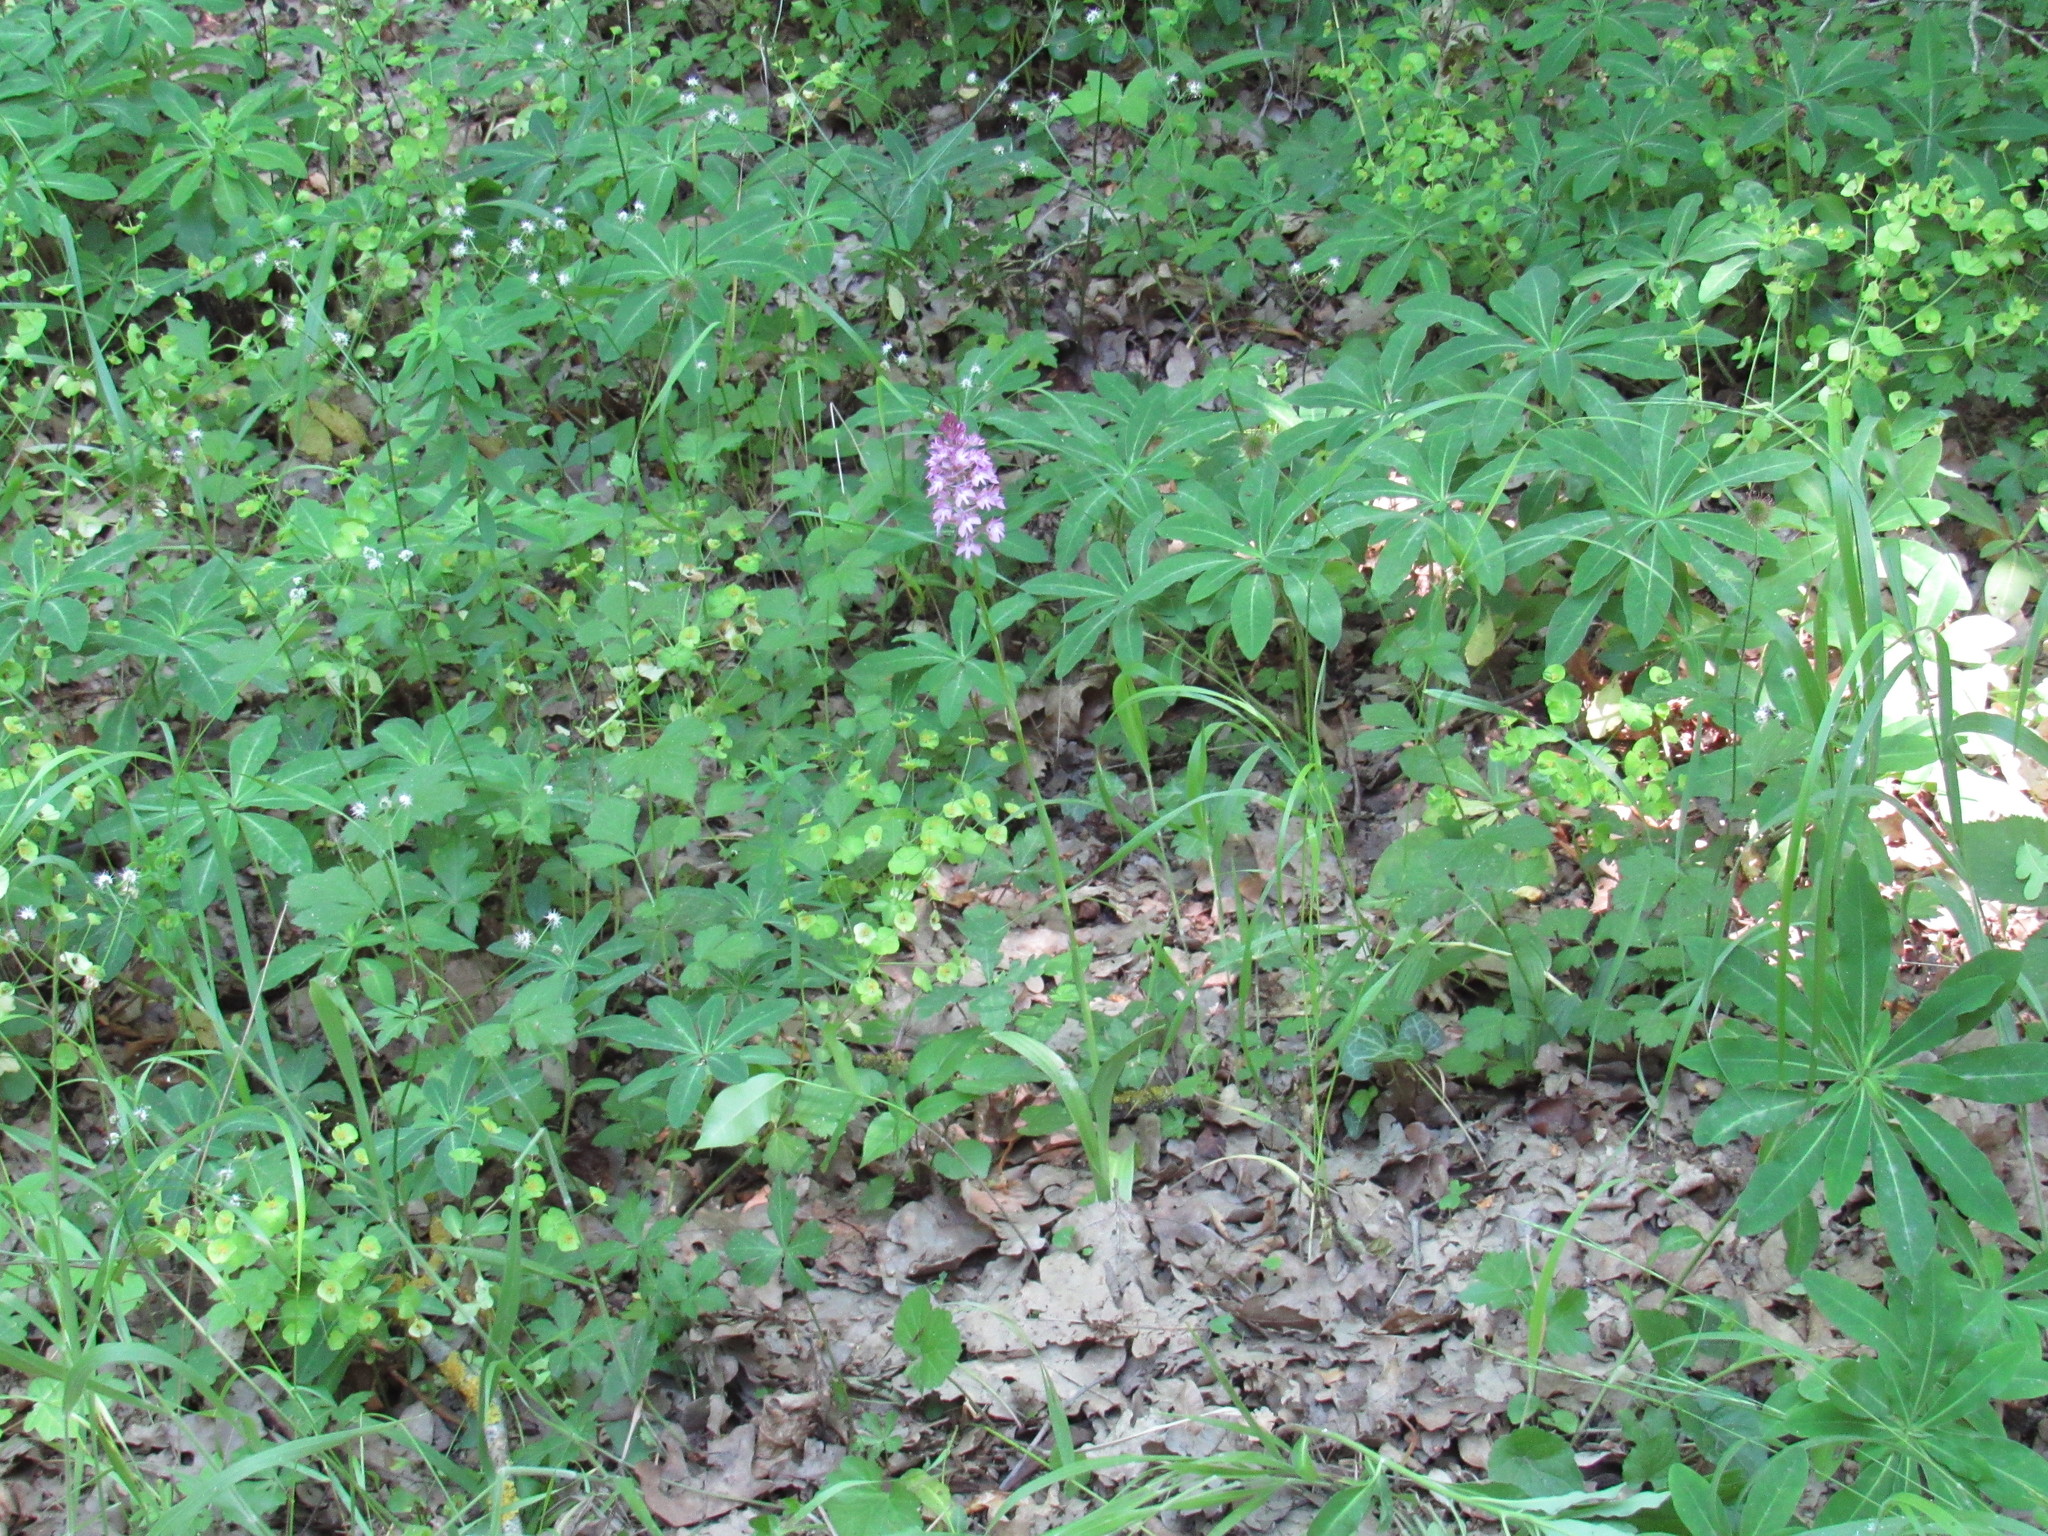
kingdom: Plantae
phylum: Tracheophyta
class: Liliopsida
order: Asparagales
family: Orchidaceae
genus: Anacamptis
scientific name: Anacamptis pyramidalis
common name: Pyramidal orchid
